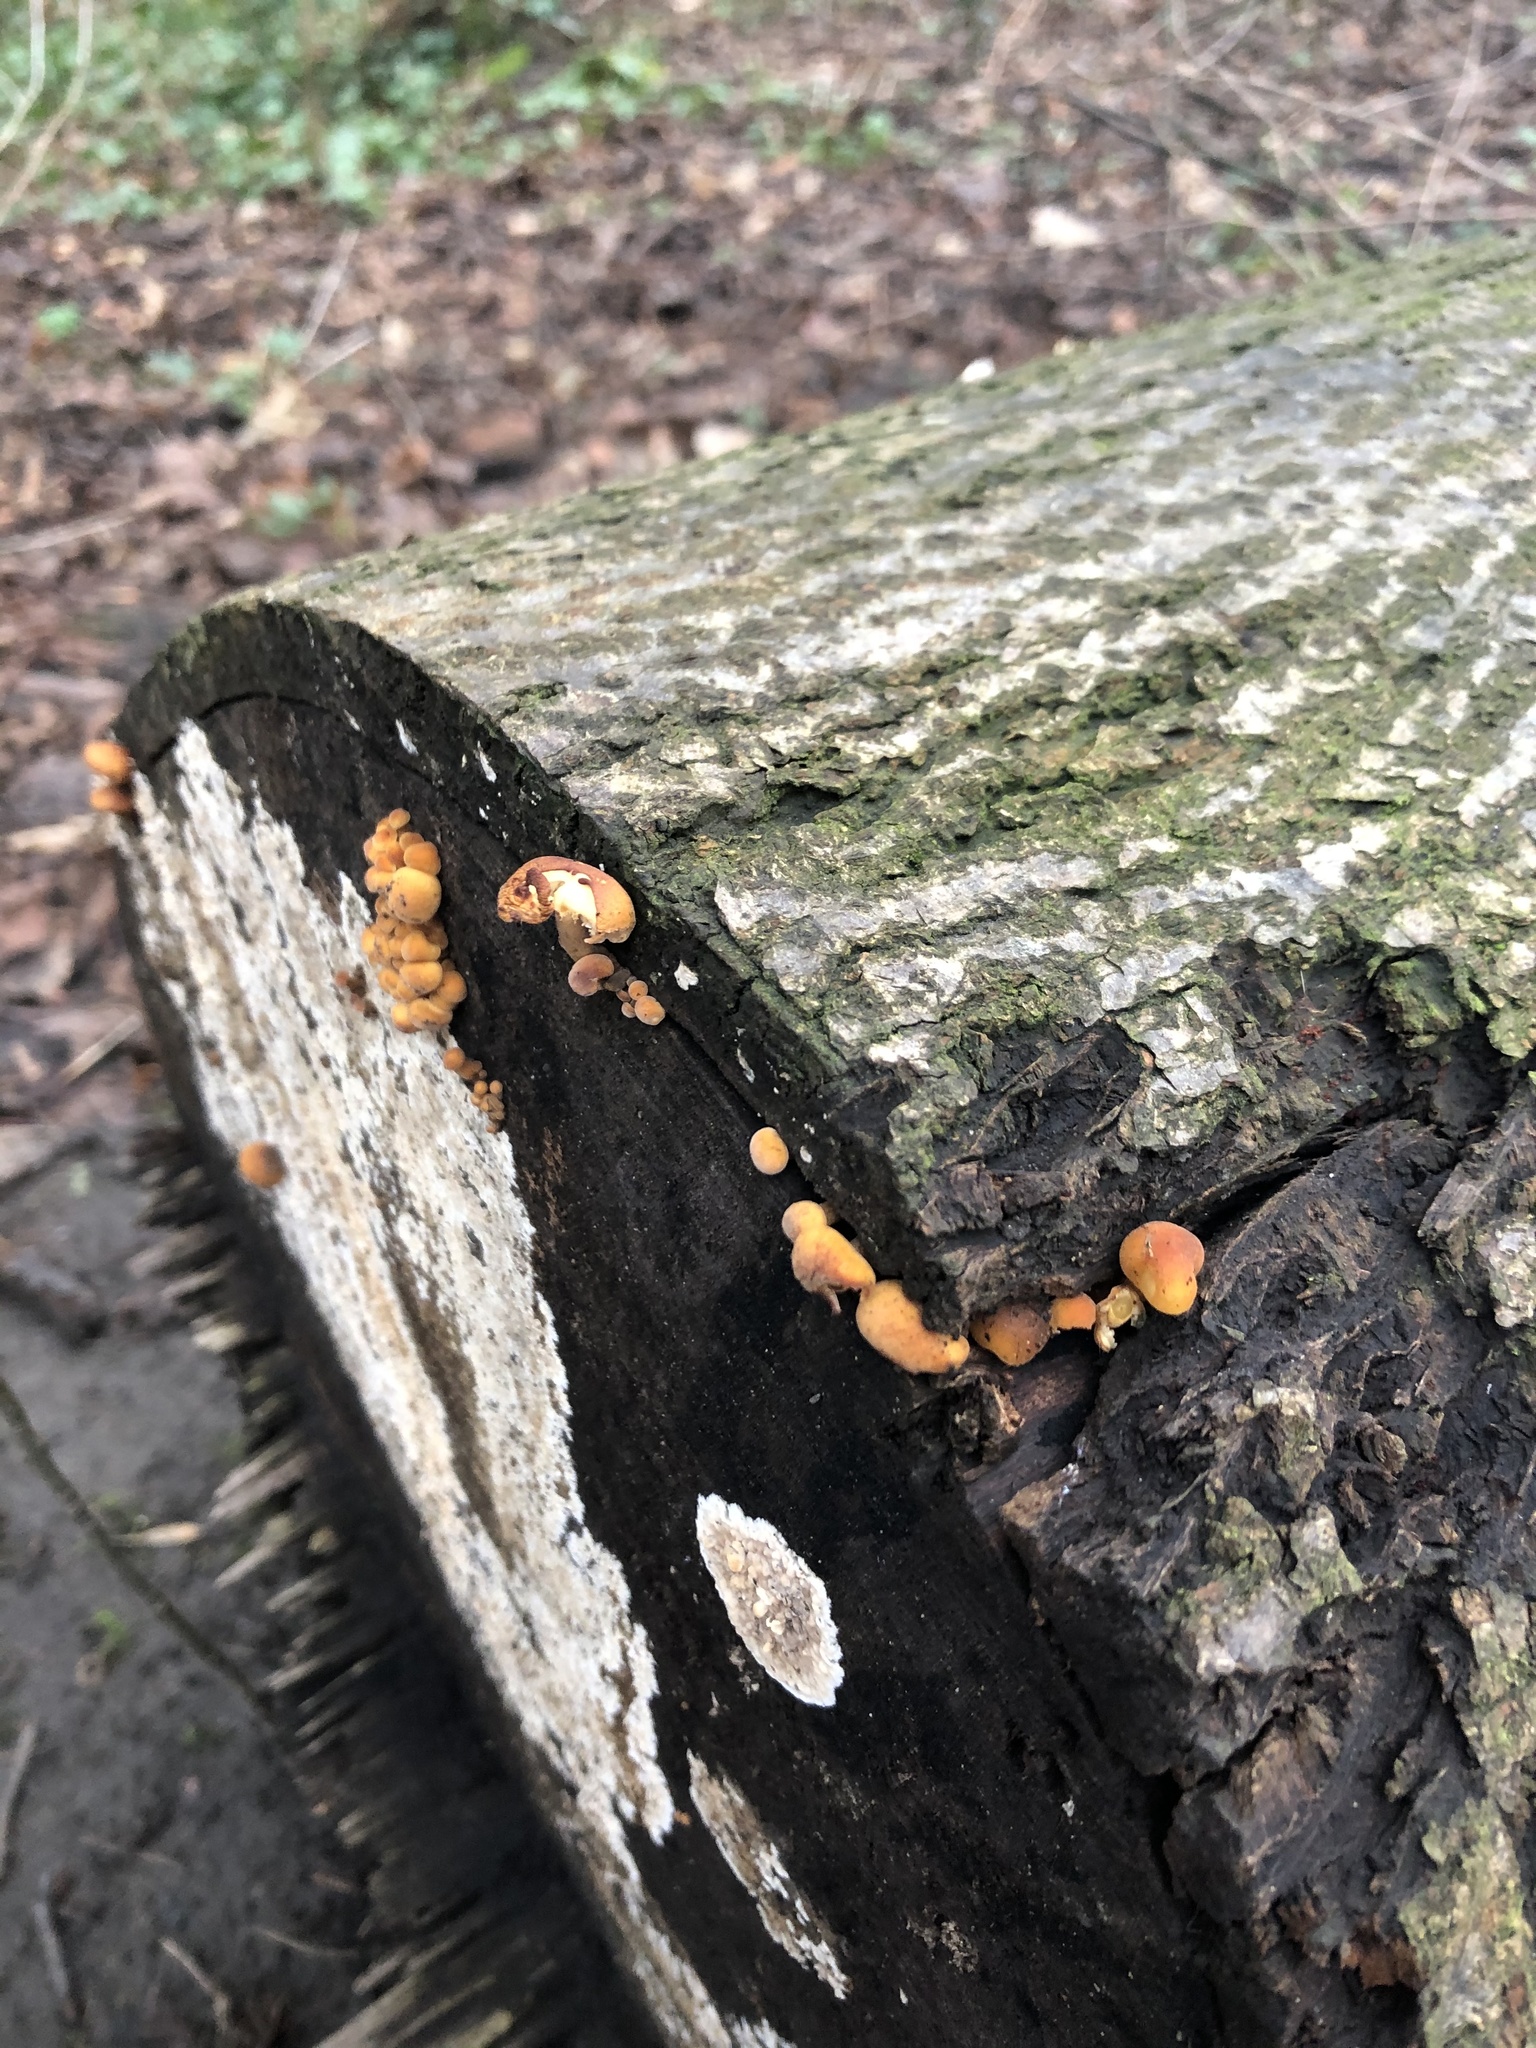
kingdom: Fungi
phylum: Basidiomycota
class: Agaricomycetes
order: Agaricales
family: Physalacriaceae
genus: Flammulina
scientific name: Flammulina
